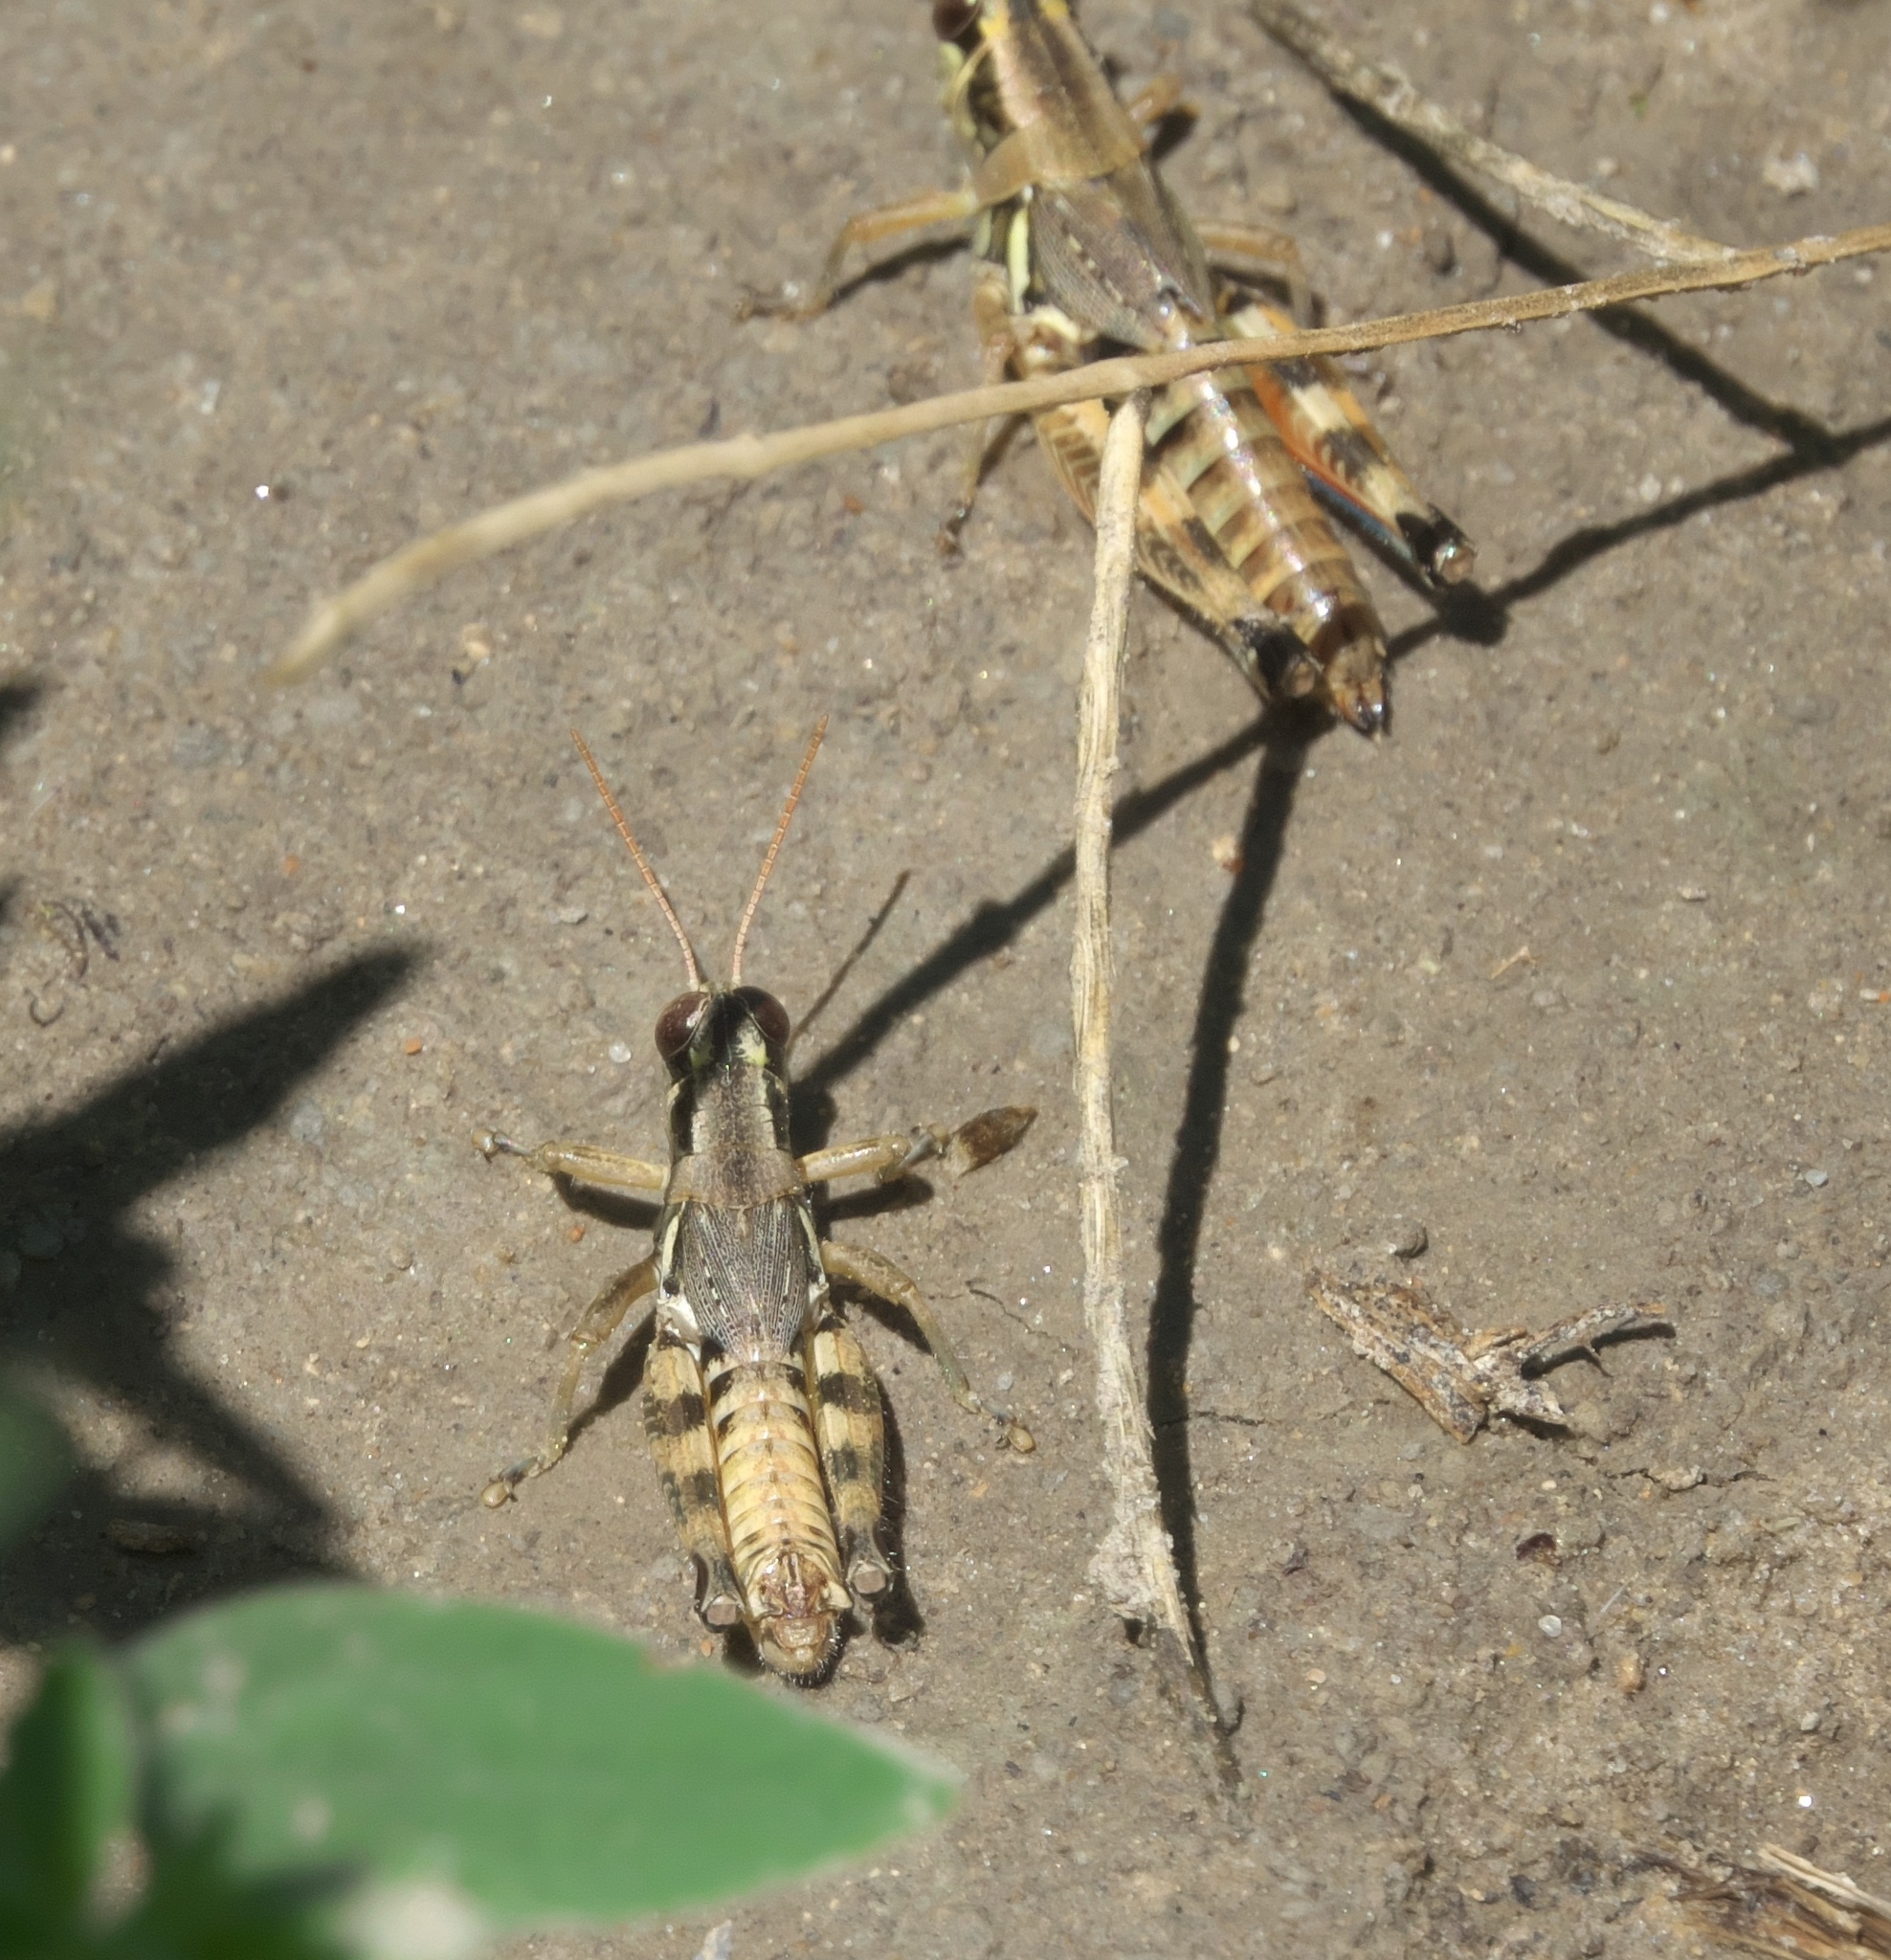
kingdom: Animalia
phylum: Arthropoda
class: Insecta
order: Orthoptera
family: Acrididae
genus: Melanoplus
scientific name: Melanoplus lakinus
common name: Lakin grasshopper
